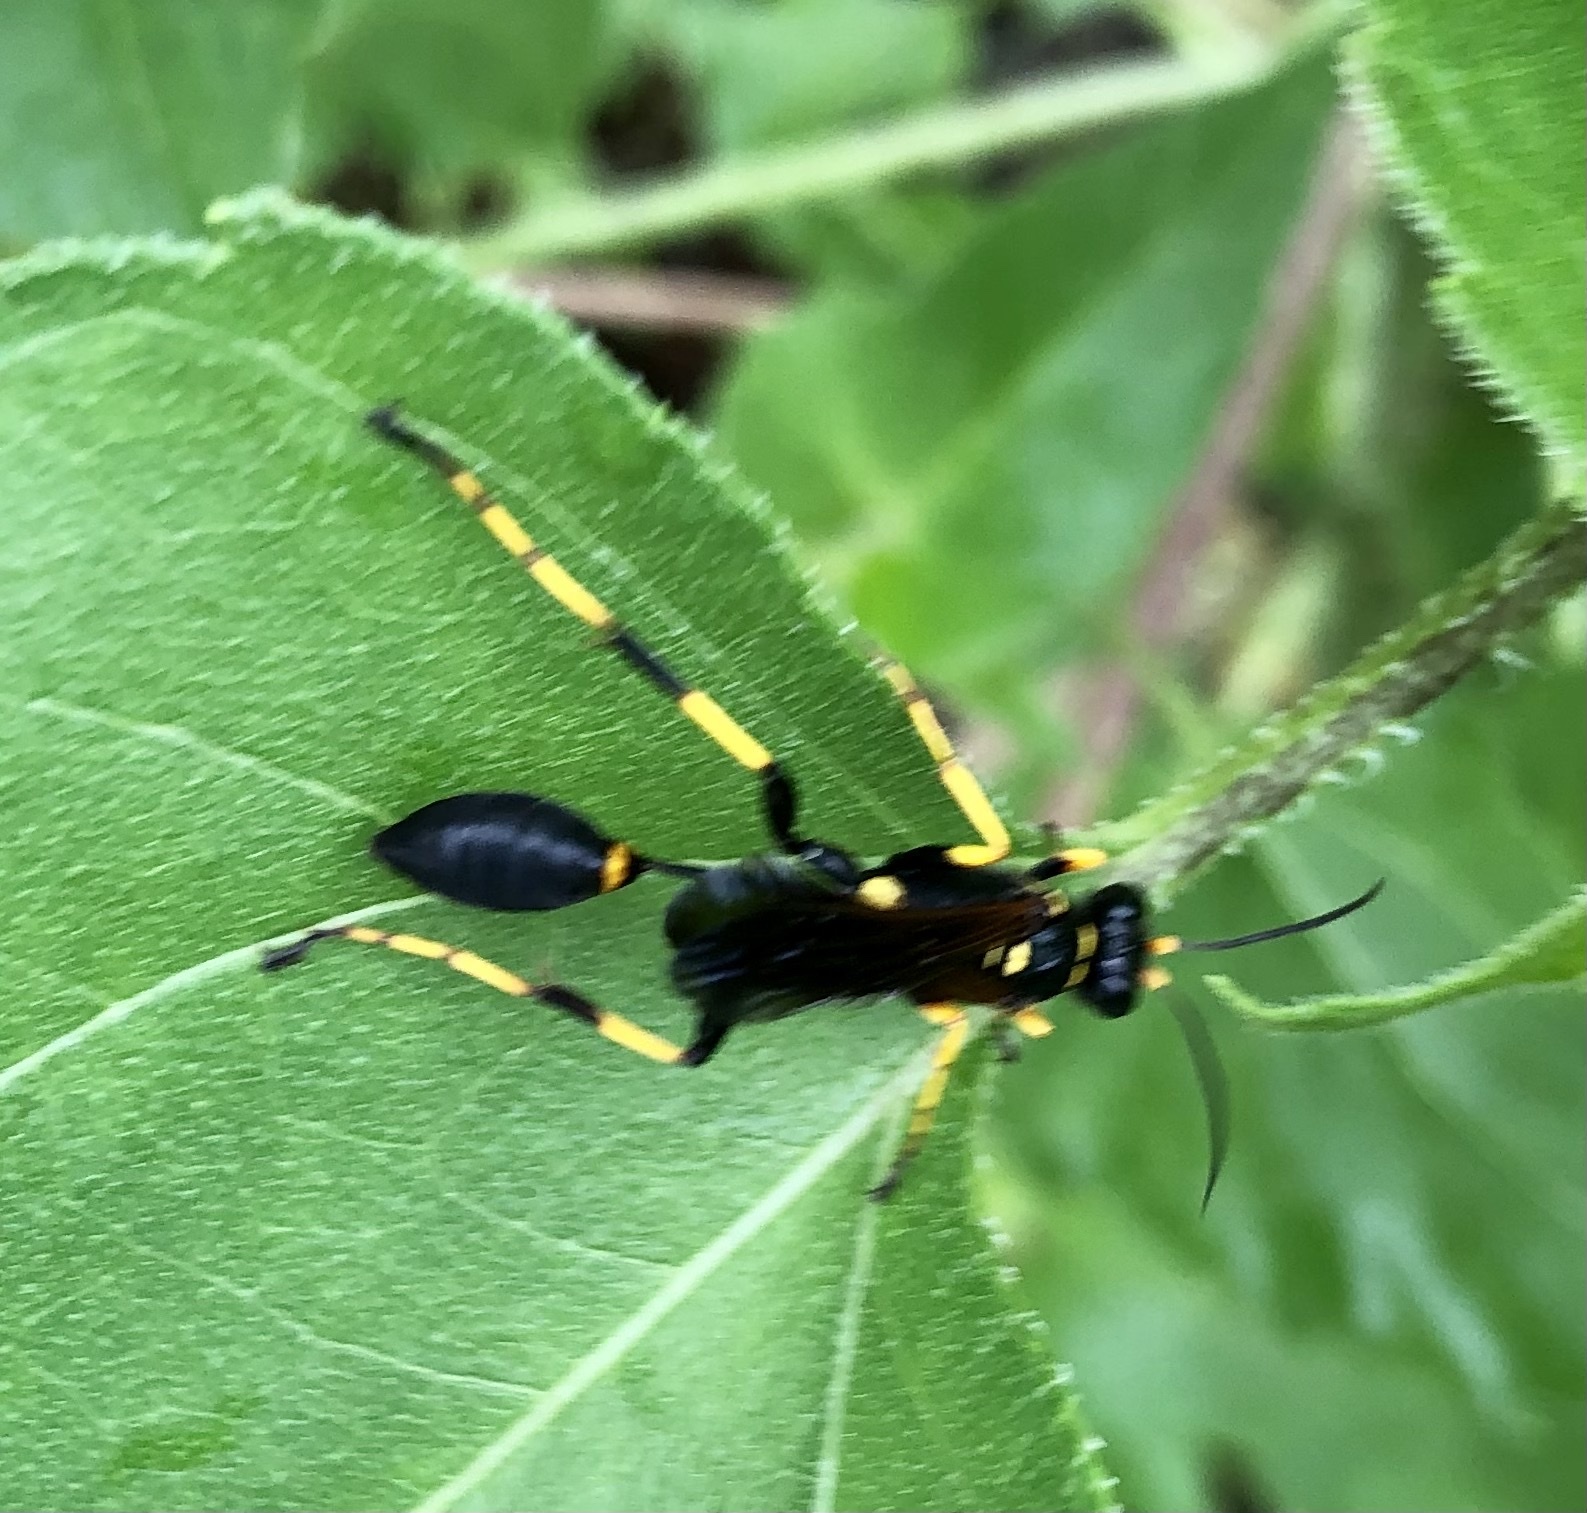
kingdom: Animalia
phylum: Arthropoda
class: Insecta
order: Hymenoptera
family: Sphecidae
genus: Sceliphron
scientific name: Sceliphron caementarium
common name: Mud dauber
